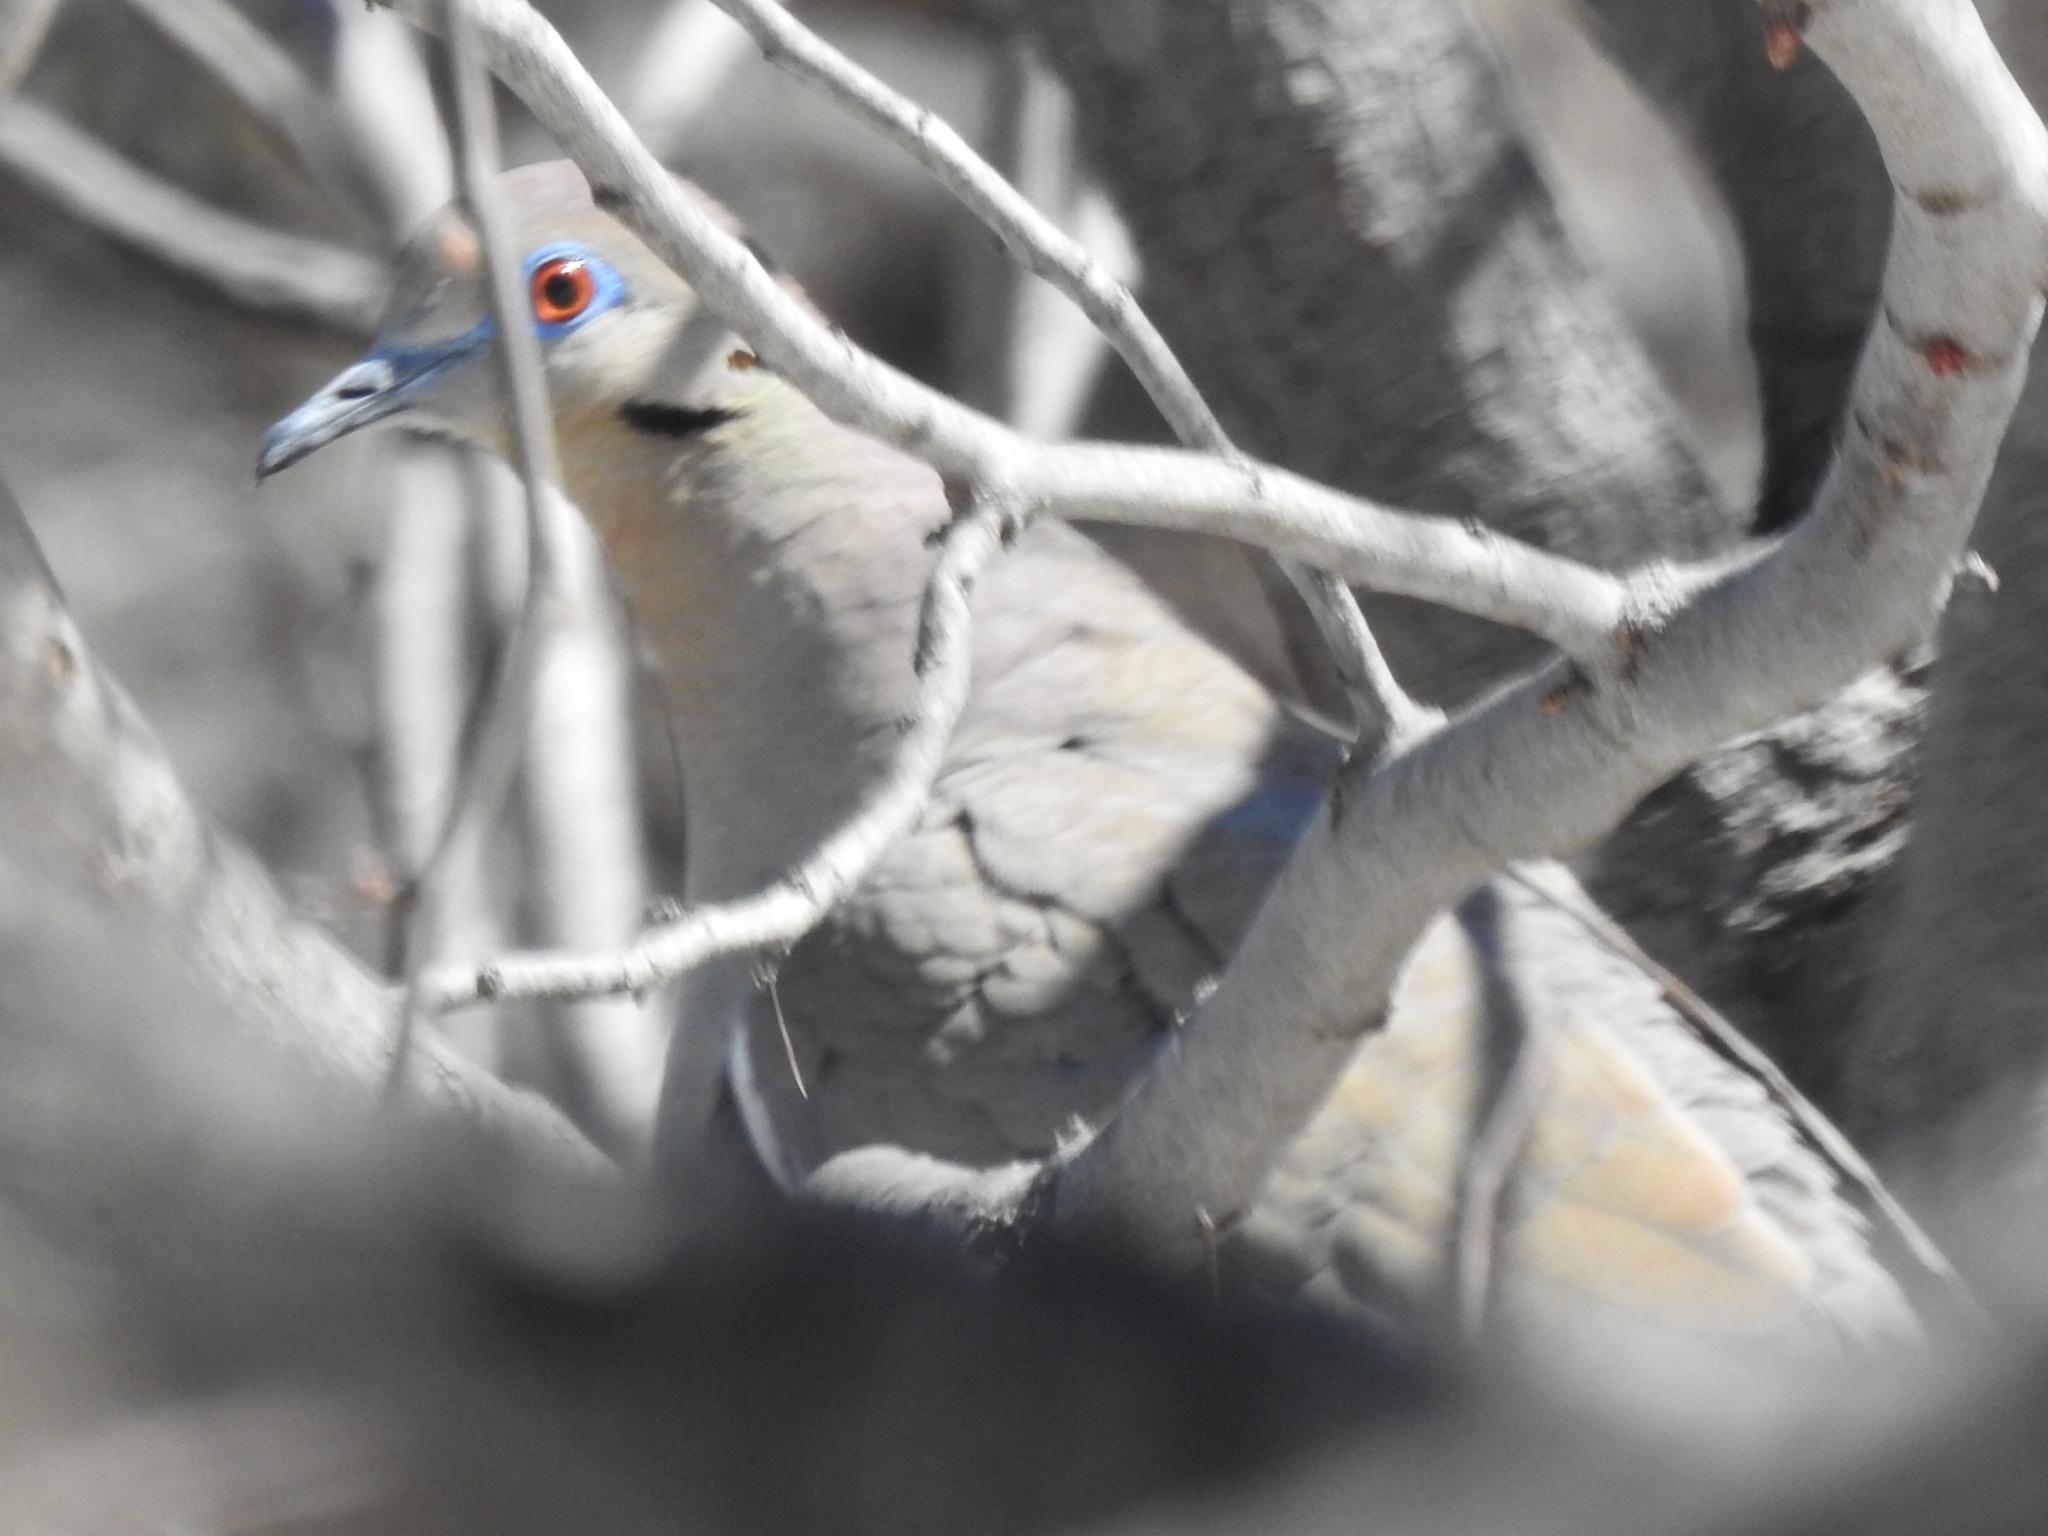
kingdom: Animalia
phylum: Chordata
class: Aves
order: Columbiformes
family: Columbidae
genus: Zenaida
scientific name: Zenaida asiatica
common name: White-winged dove
